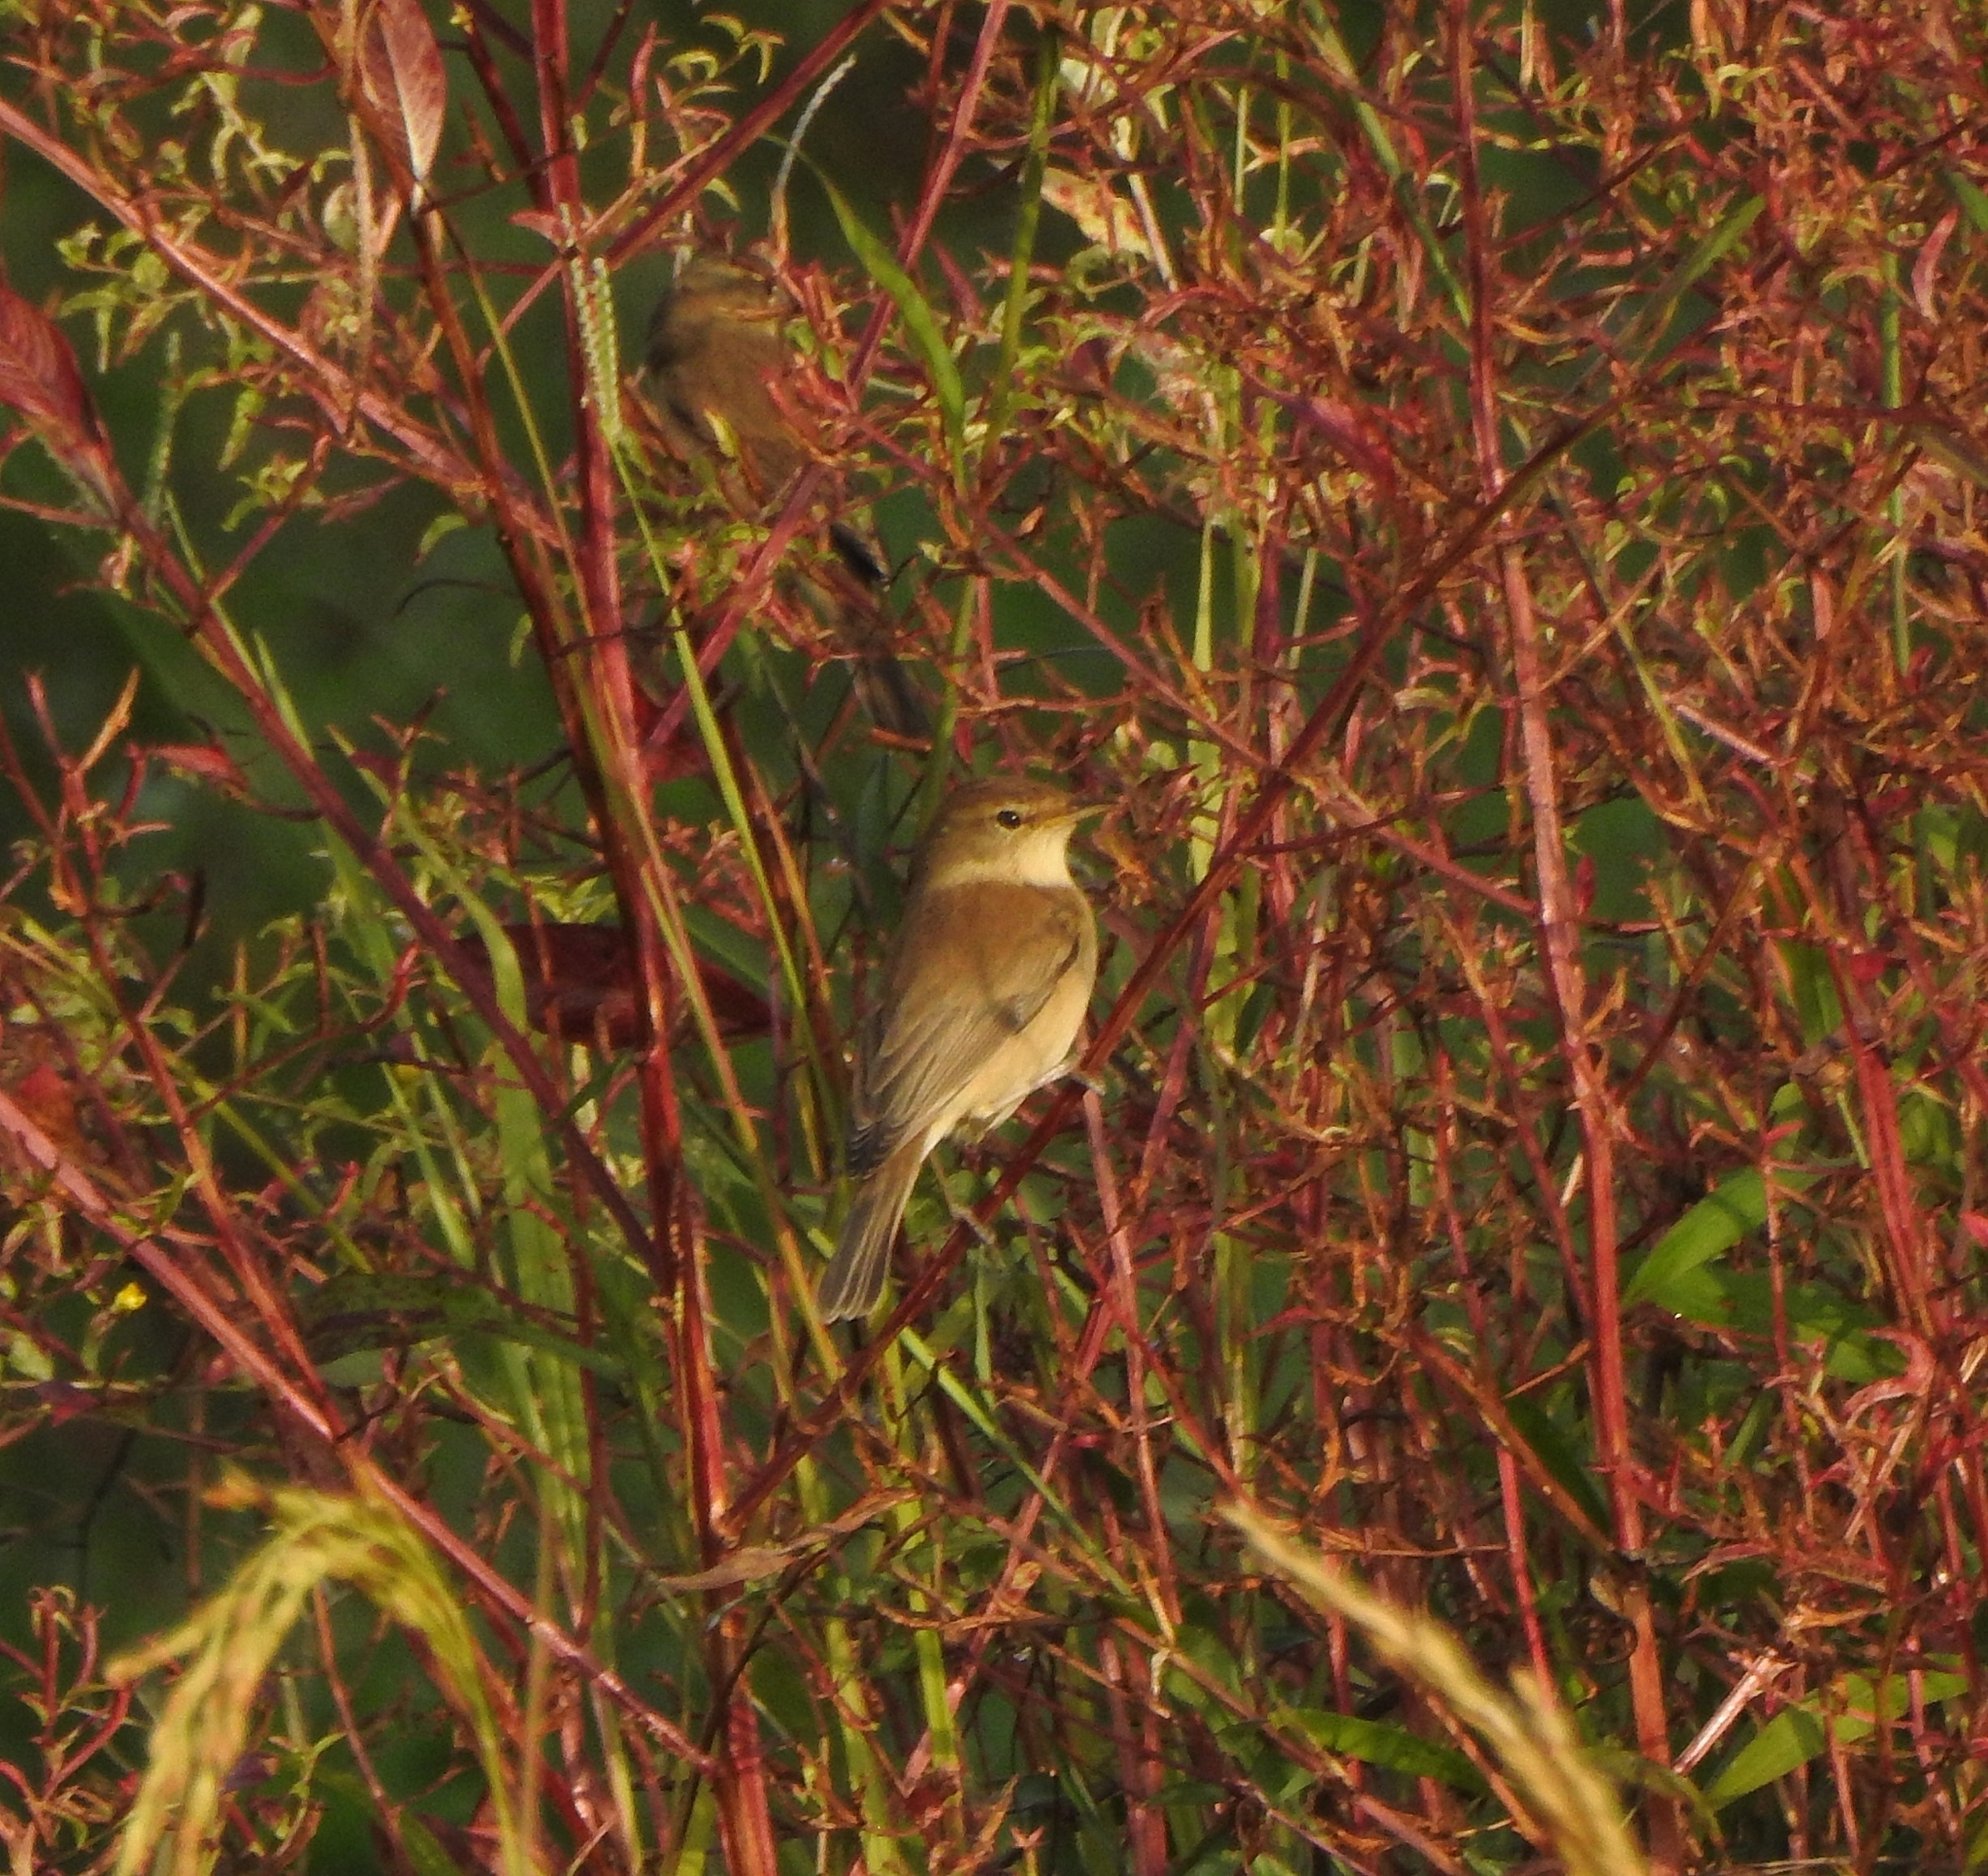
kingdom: Animalia
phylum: Chordata
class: Aves
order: Passeriformes
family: Acrocephalidae
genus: Iduna
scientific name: Iduna caligata
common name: Booted warbler
